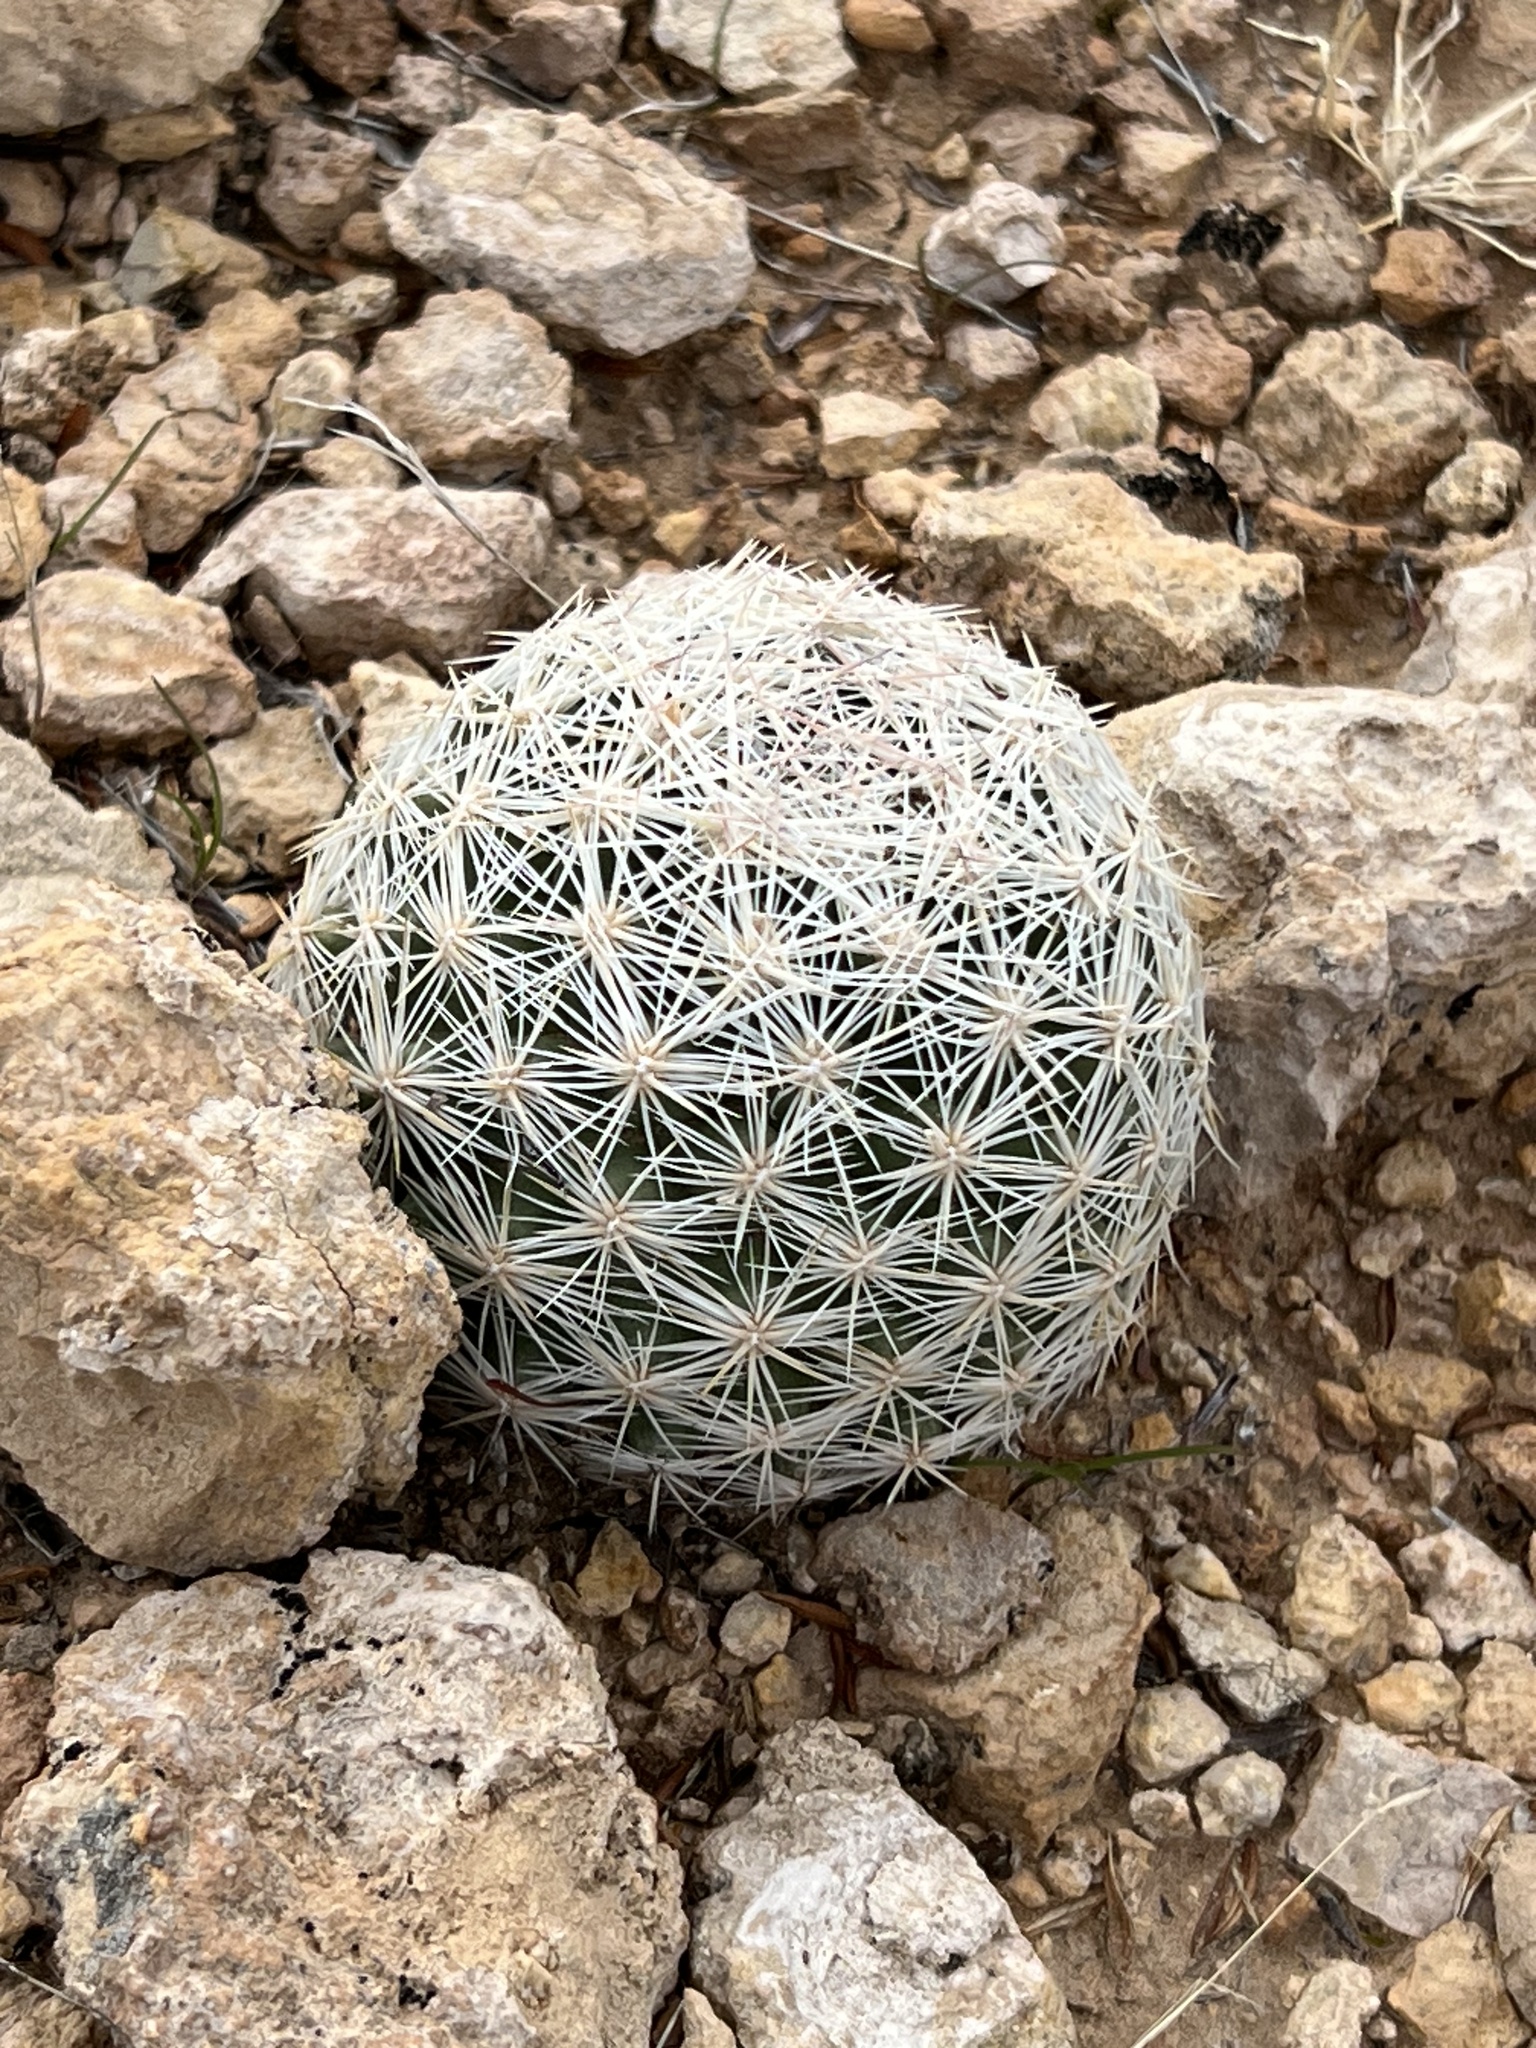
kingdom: Plantae
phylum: Tracheophyta
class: Magnoliopsida
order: Caryophyllales
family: Cactaceae
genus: Pelecyphora
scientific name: Pelecyphora dasyacantha
